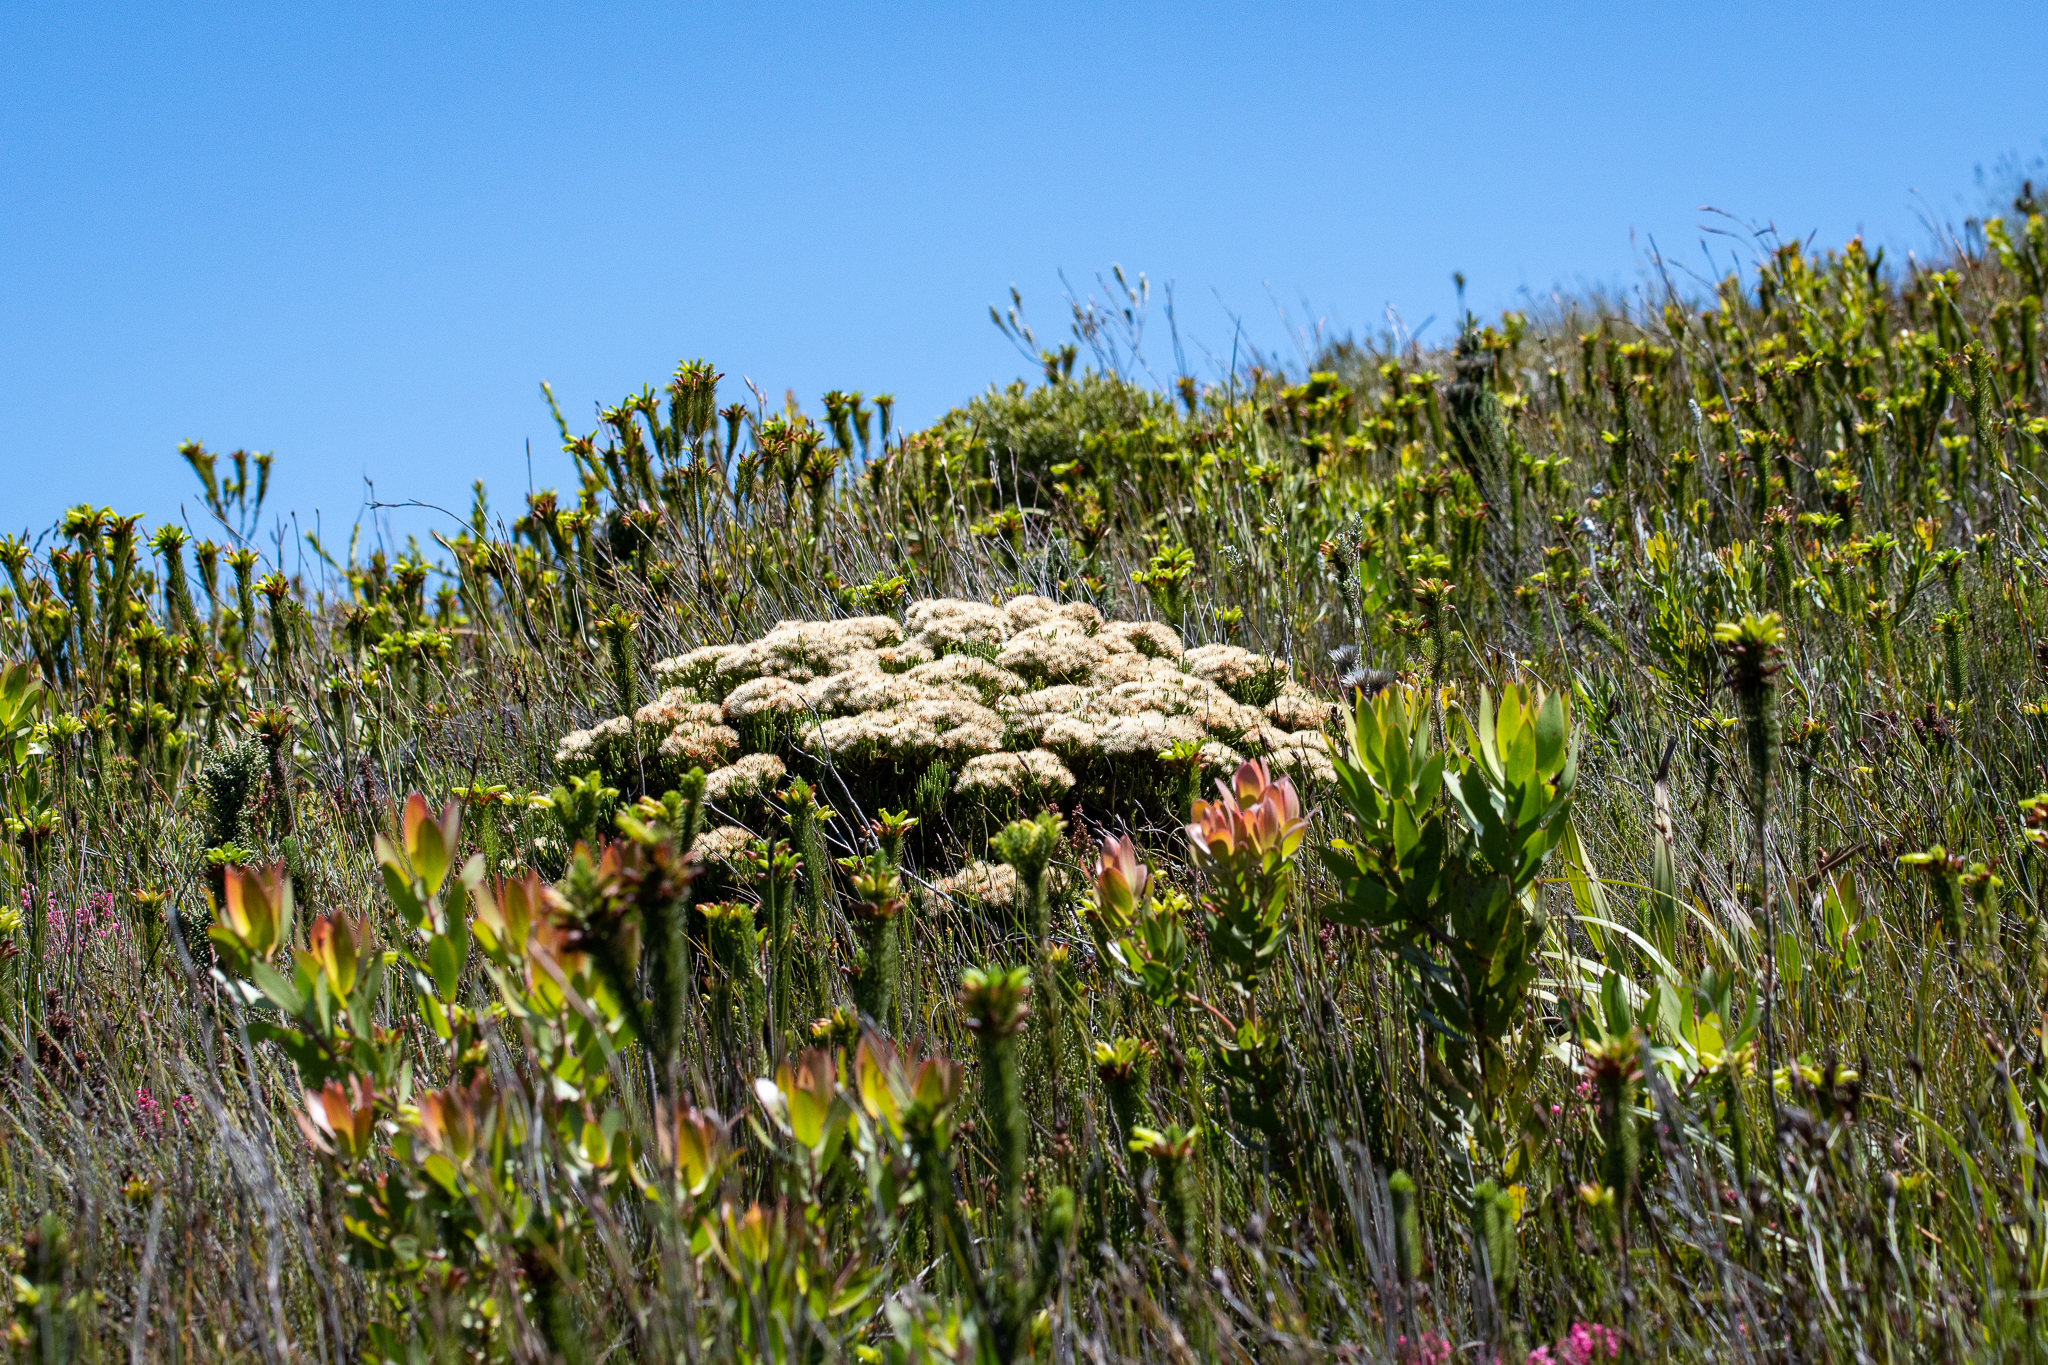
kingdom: Plantae
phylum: Tracheophyta
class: Magnoliopsida
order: Bruniales
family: Bruniaceae
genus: Brunia
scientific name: Brunia paleacea
